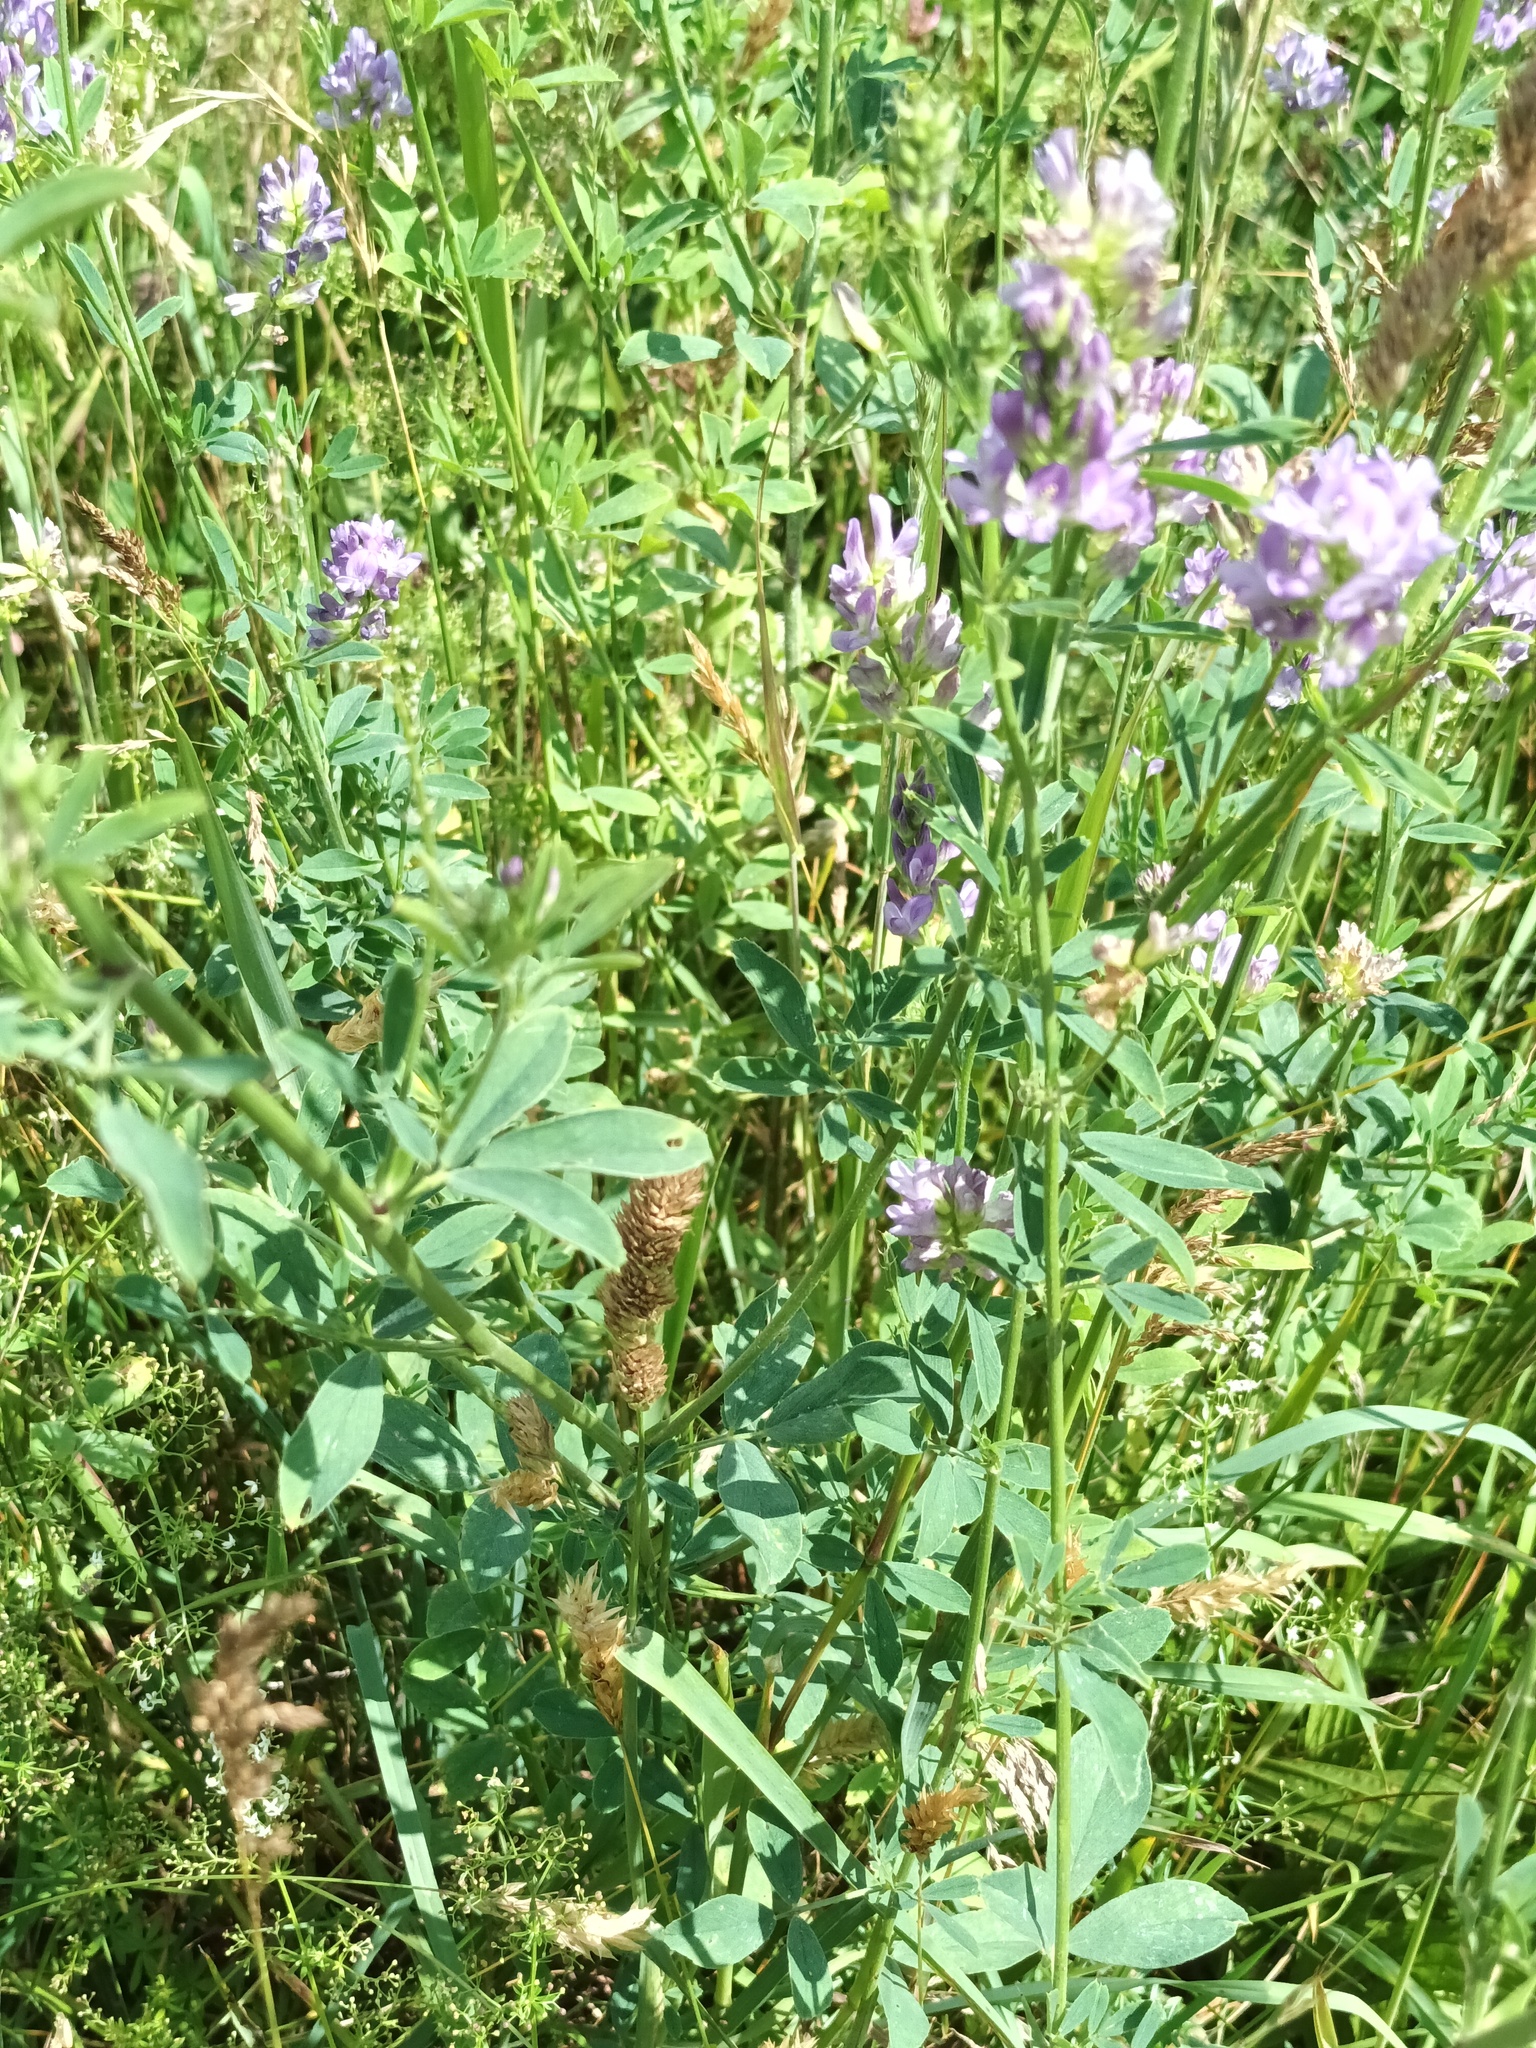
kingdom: Plantae
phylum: Tracheophyta
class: Magnoliopsida
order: Fabales
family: Fabaceae
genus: Medicago
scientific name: Medicago sativa
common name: Alfalfa
